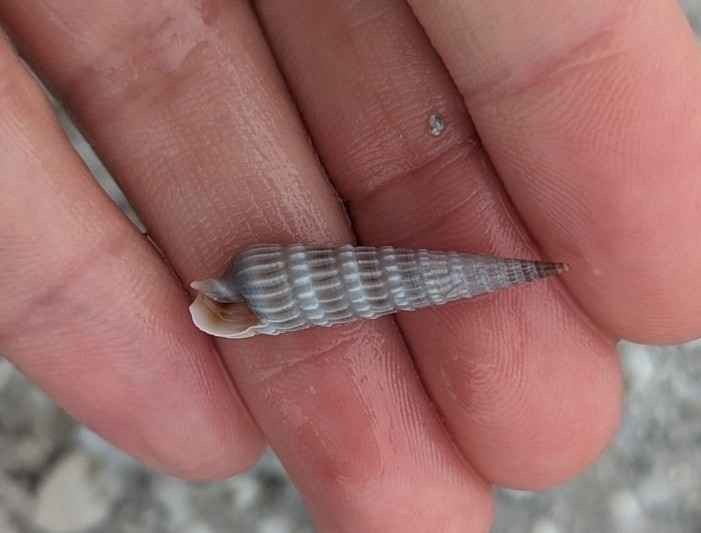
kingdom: Animalia
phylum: Mollusca
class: Gastropoda
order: Neogastropoda
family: Terebridae
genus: Neoterebra
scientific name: Neoterebra dislocata
